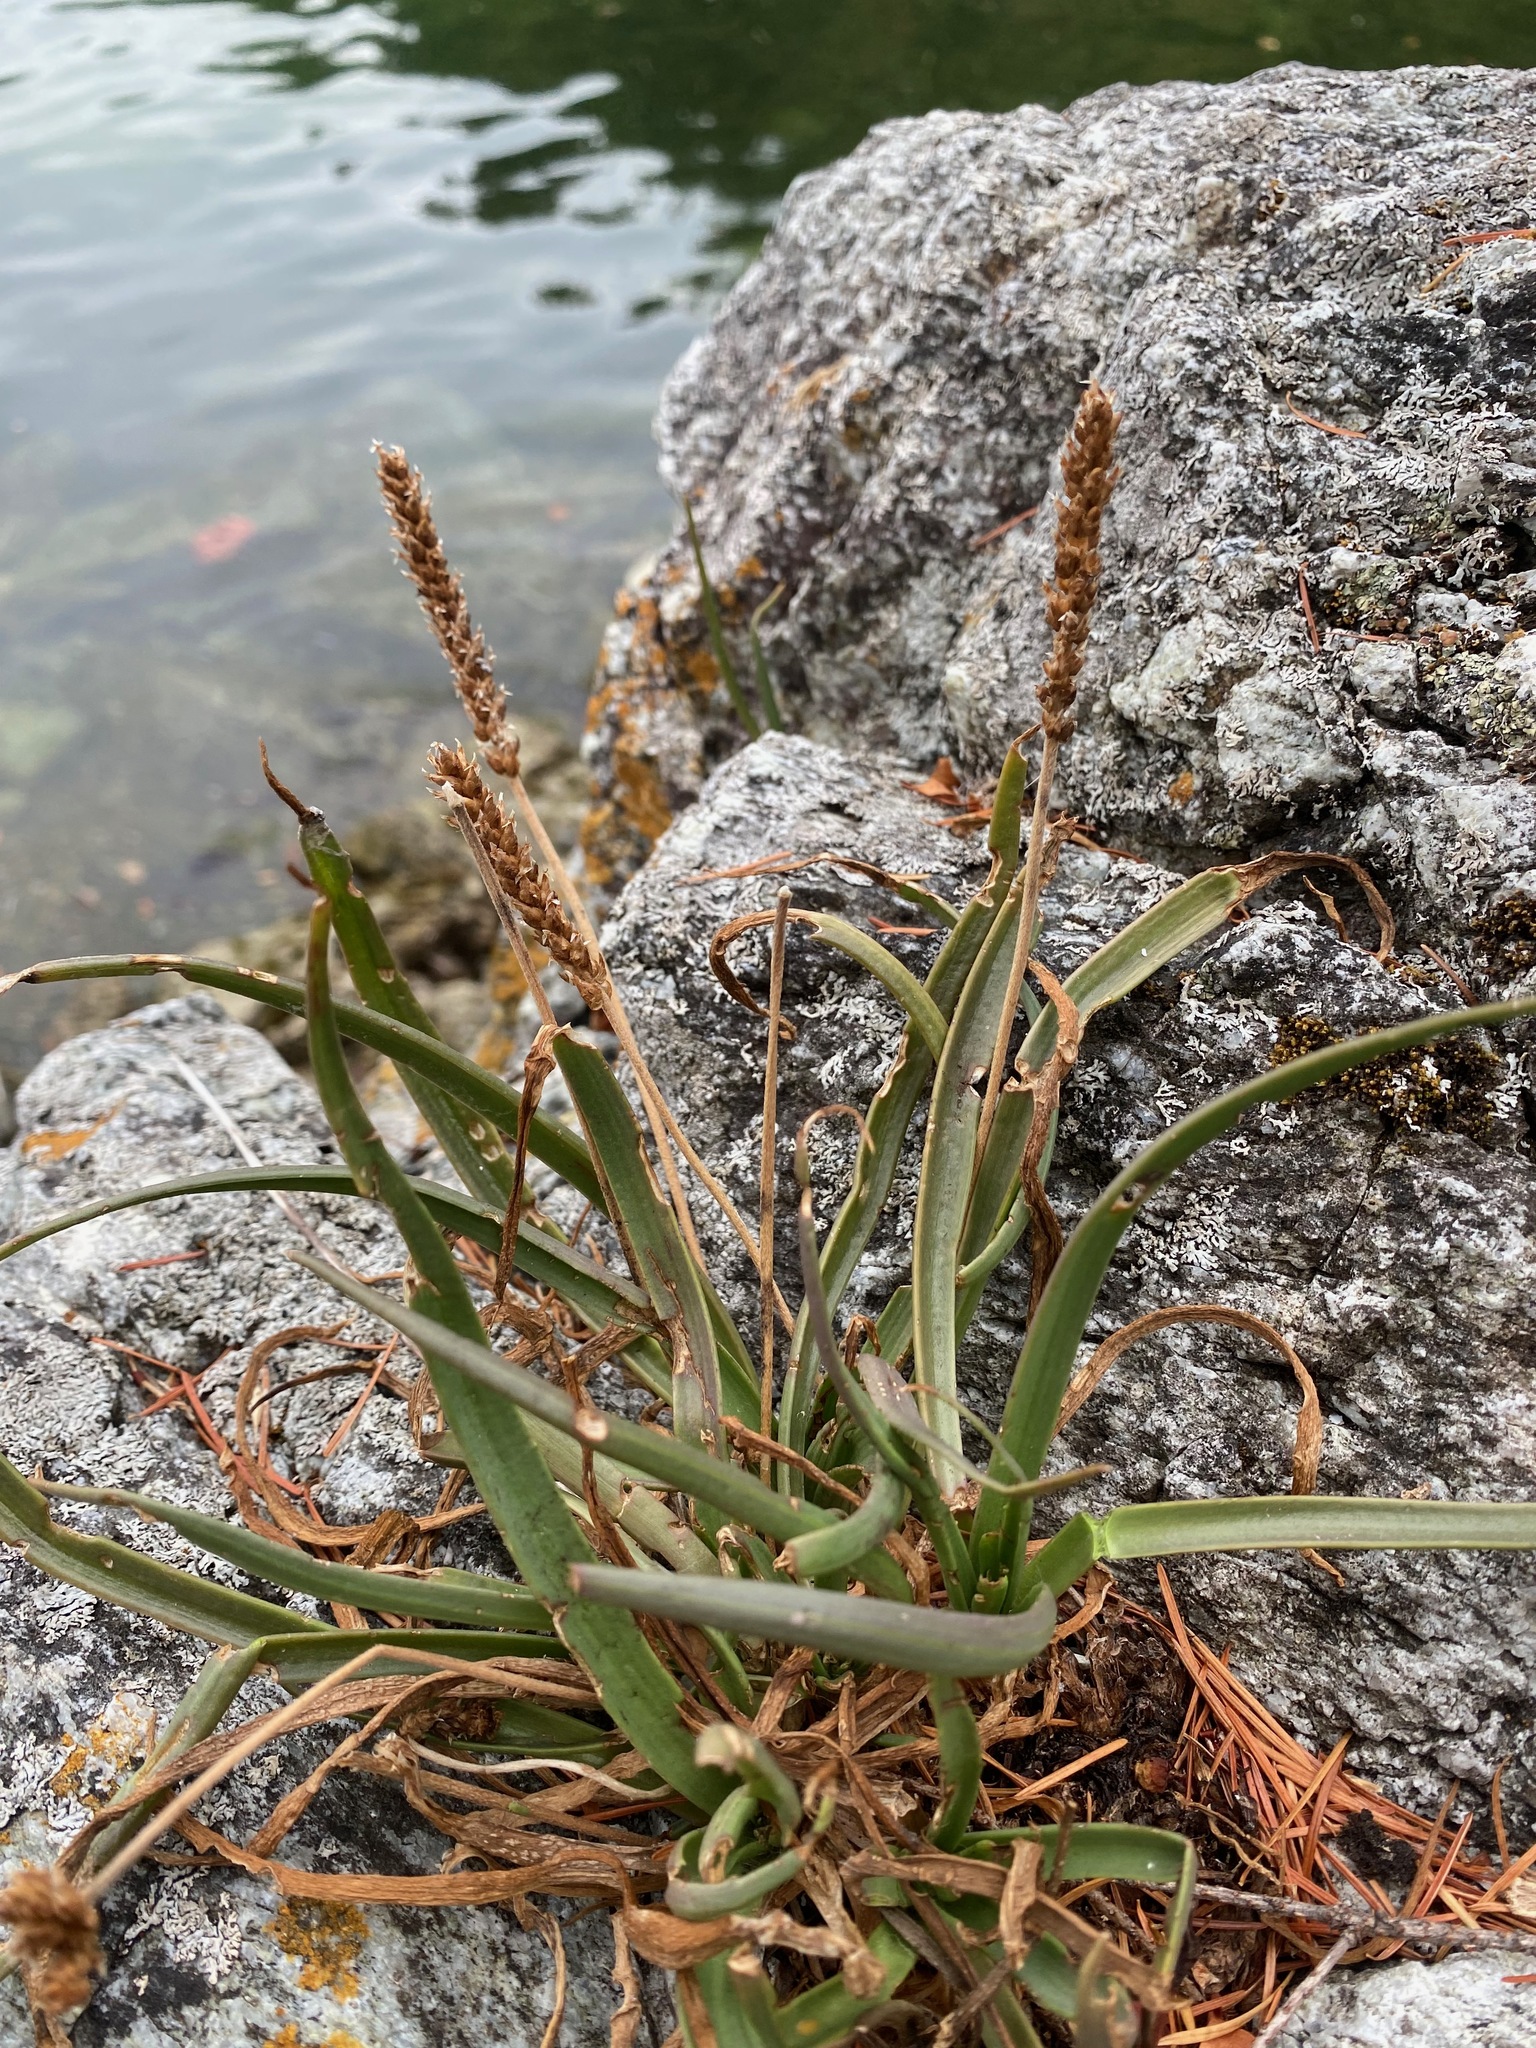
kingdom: Plantae
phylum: Tracheophyta
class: Magnoliopsida
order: Lamiales
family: Plantaginaceae
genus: Plantago
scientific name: Plantago maritima
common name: Sea plantain
